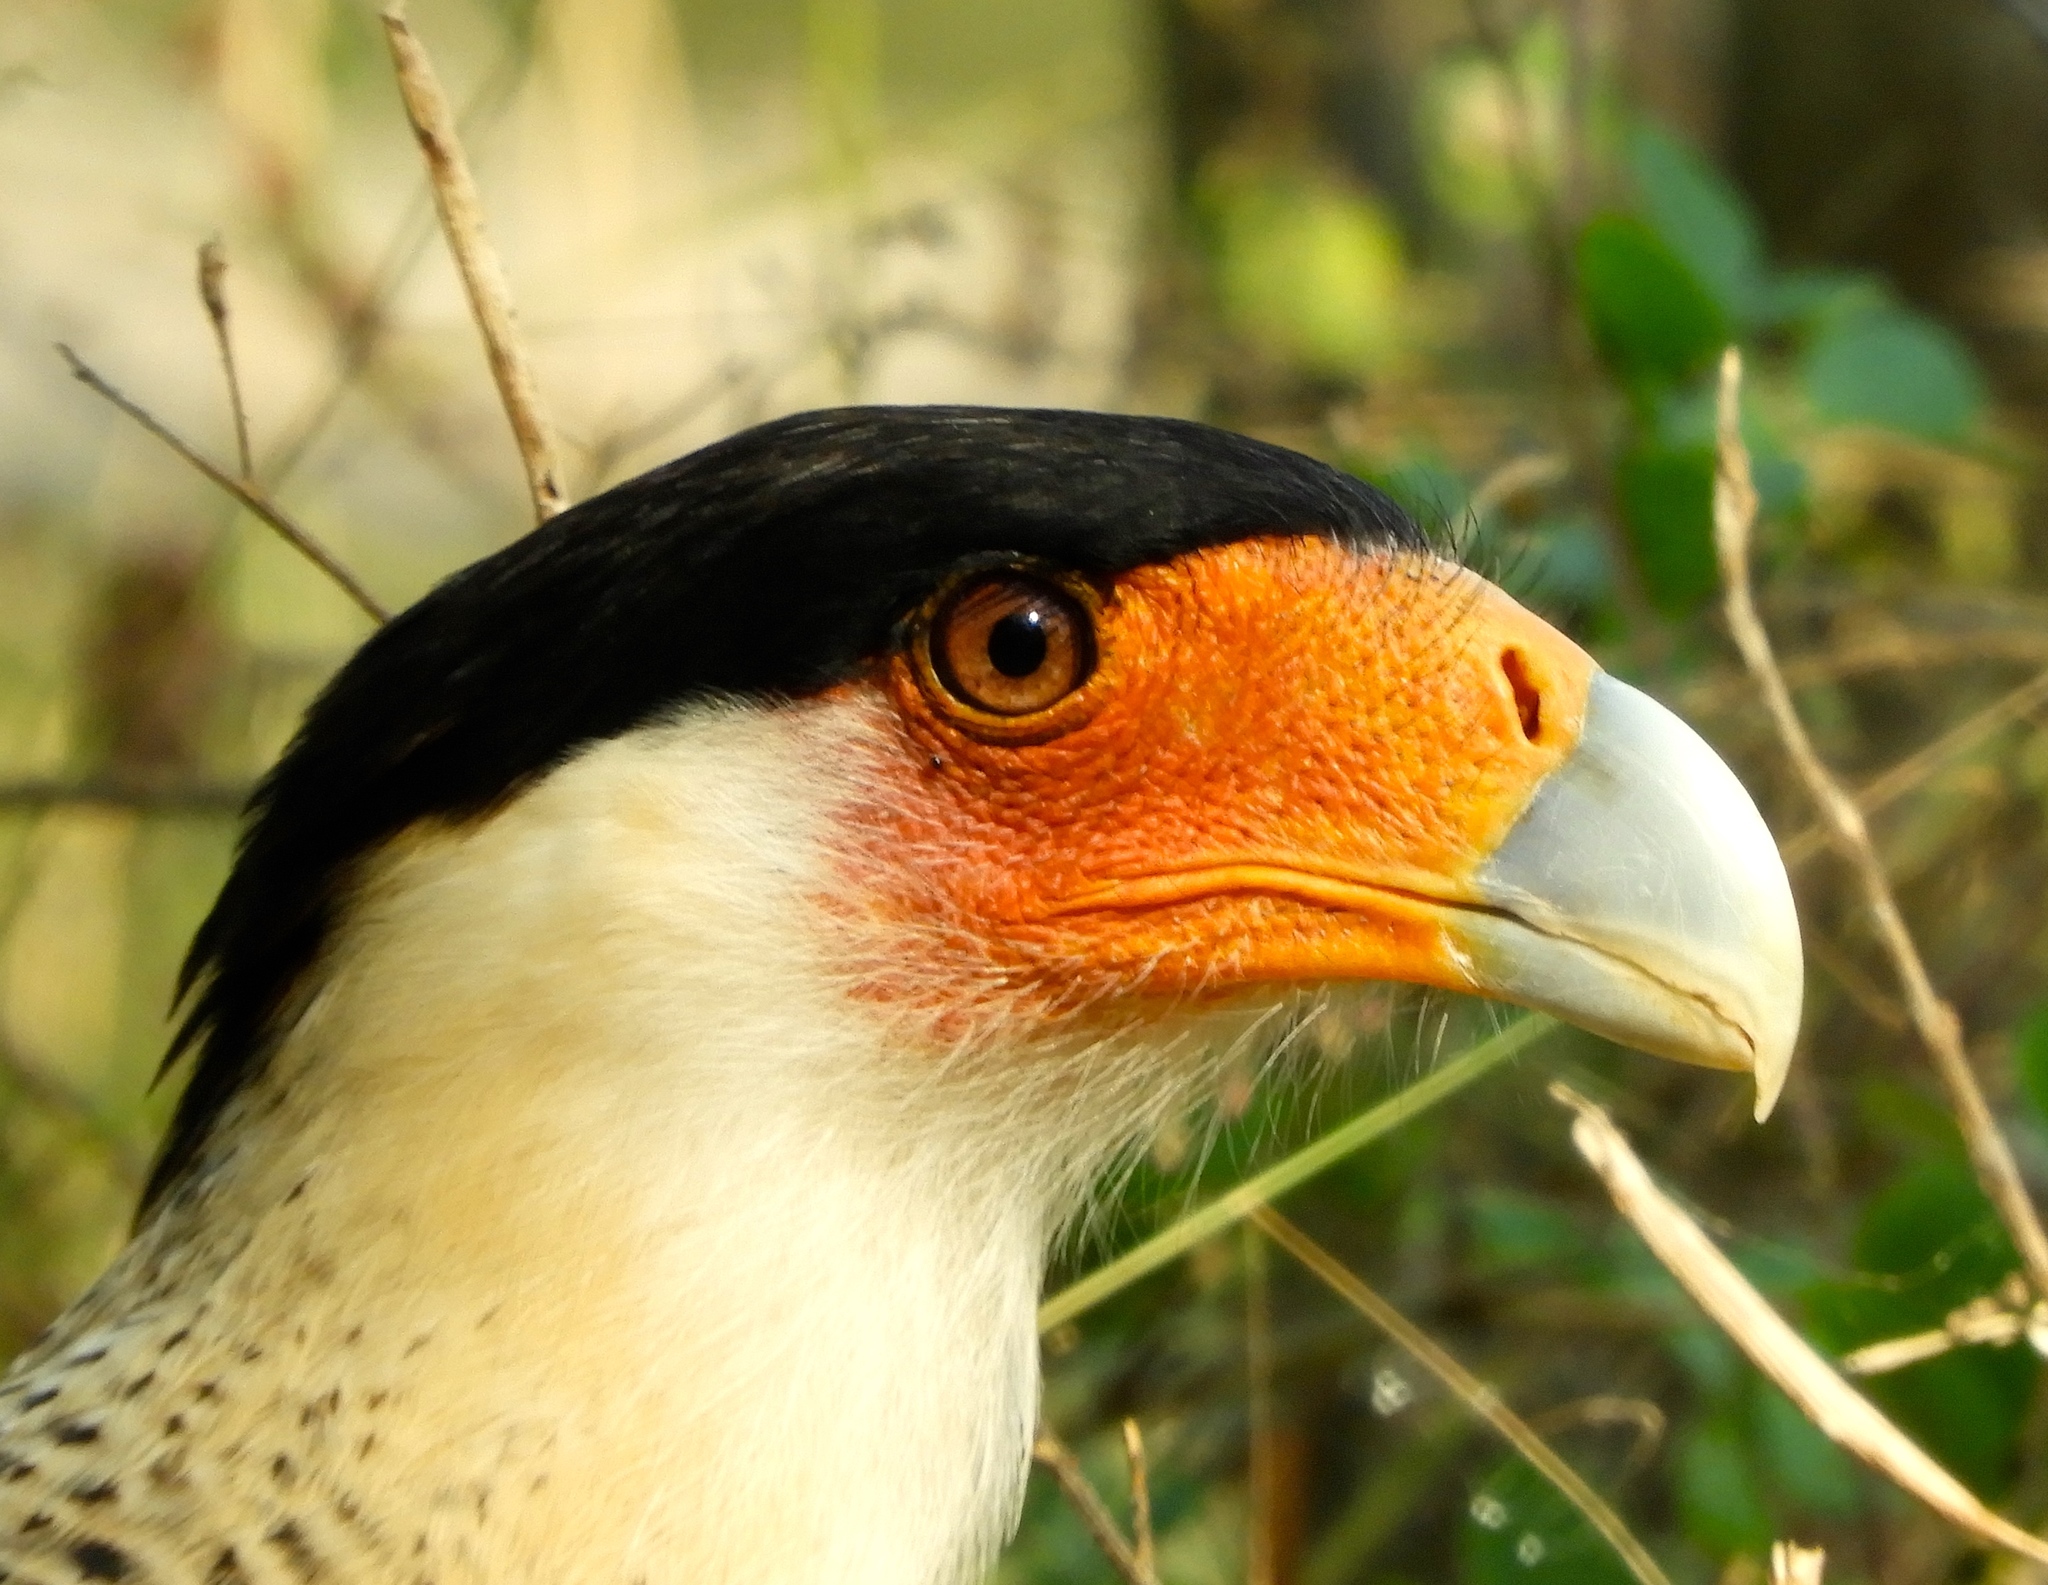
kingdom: Animalia
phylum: Chordata
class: Aves
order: Falconiformes
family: Falconidae
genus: Caracara
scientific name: Caracara plancus
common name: Southern caracara
